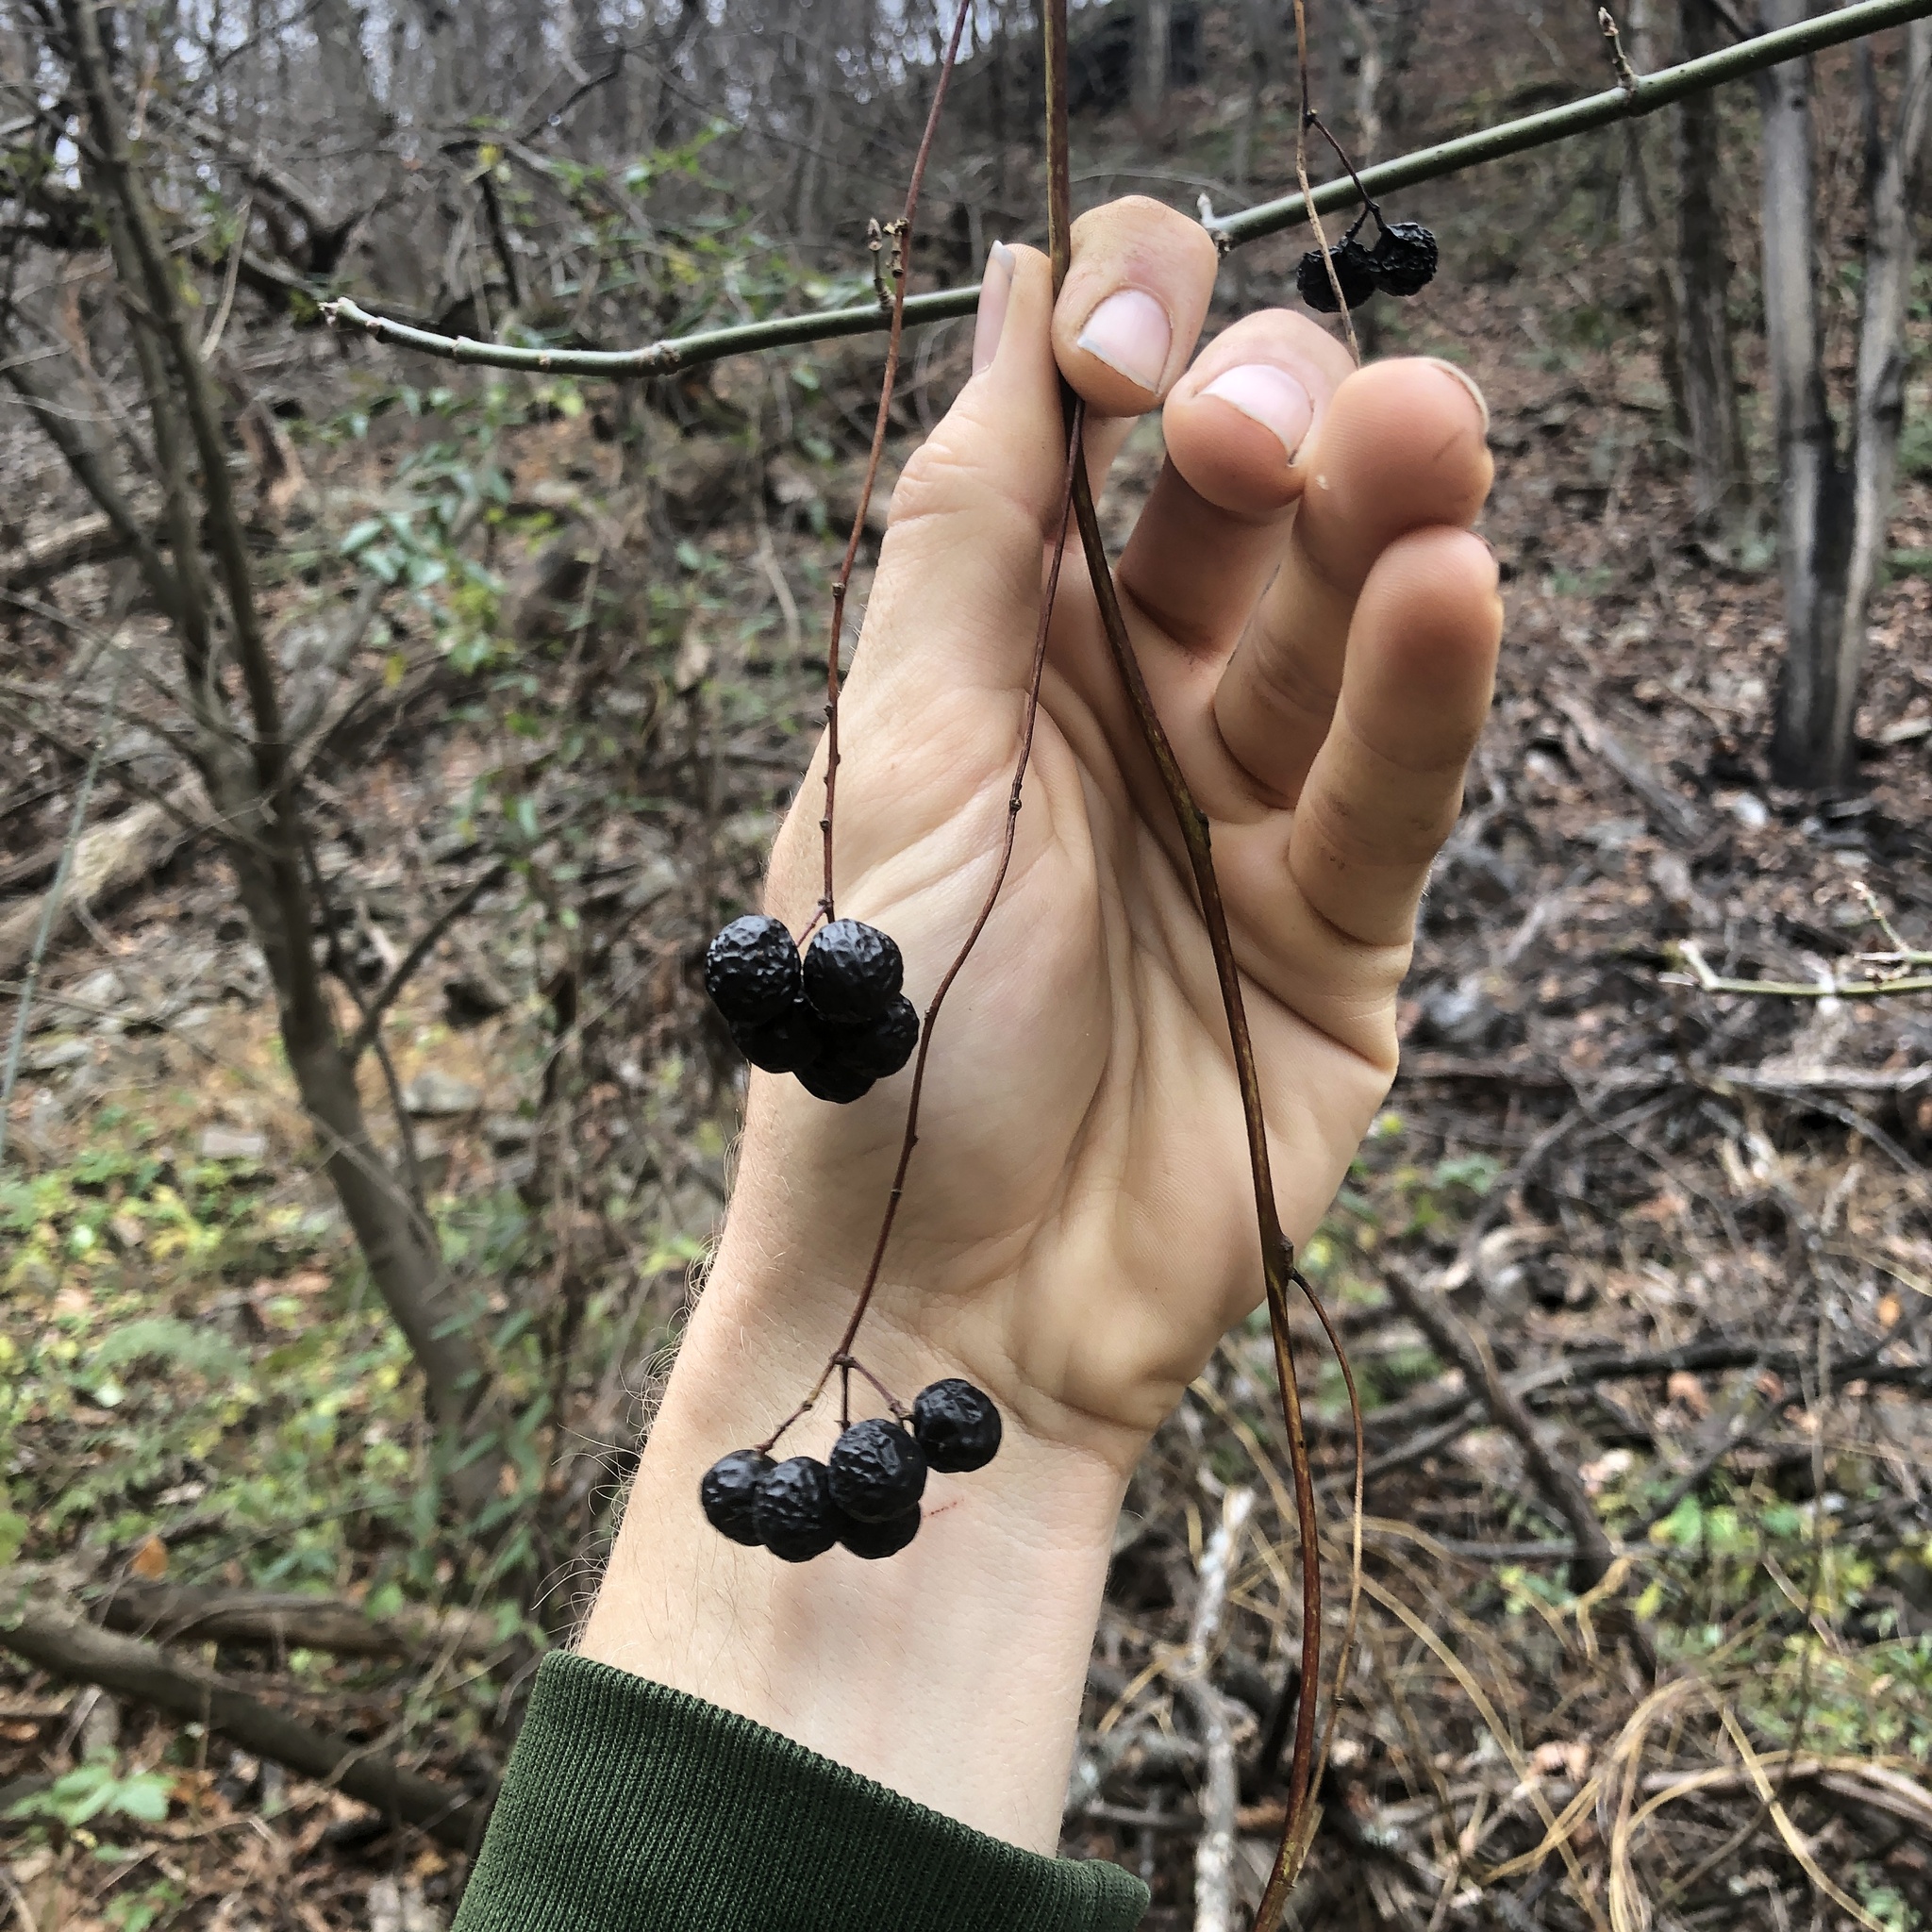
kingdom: Plantae
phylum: Tracheophyta
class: Magnoliopsida
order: Ranunculales
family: Menispermaceae
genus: Menispermum
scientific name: Menispermum canadense
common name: Moonseed
